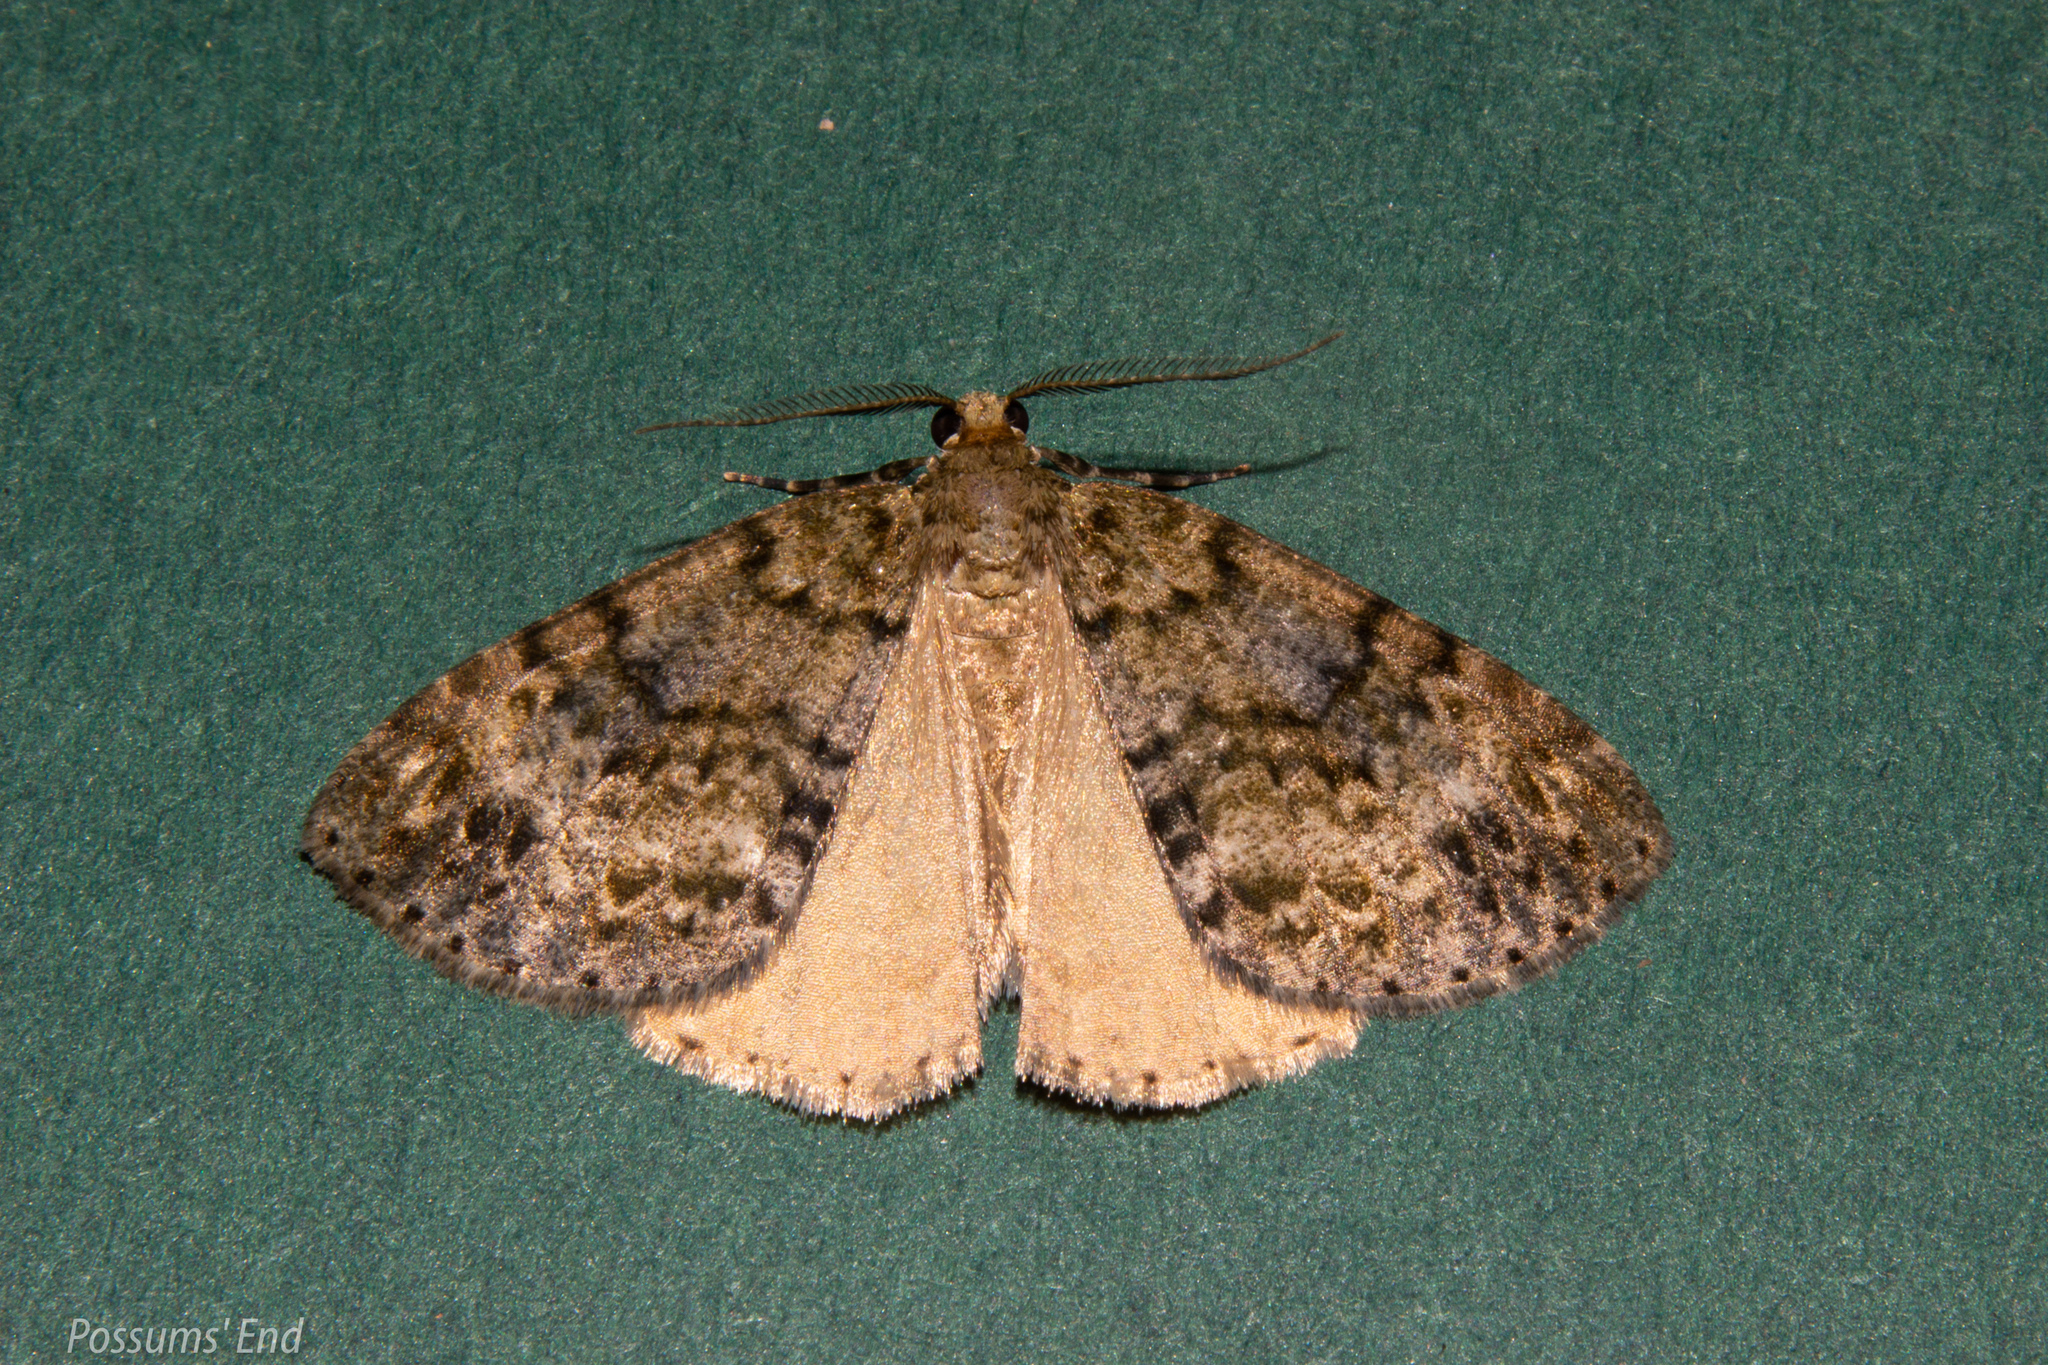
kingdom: Animalia
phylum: Arthropoda
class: Insecta
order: Lepidoptera
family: Geometridae
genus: Pseudocoremia
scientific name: Pseudocoremia indistincta
